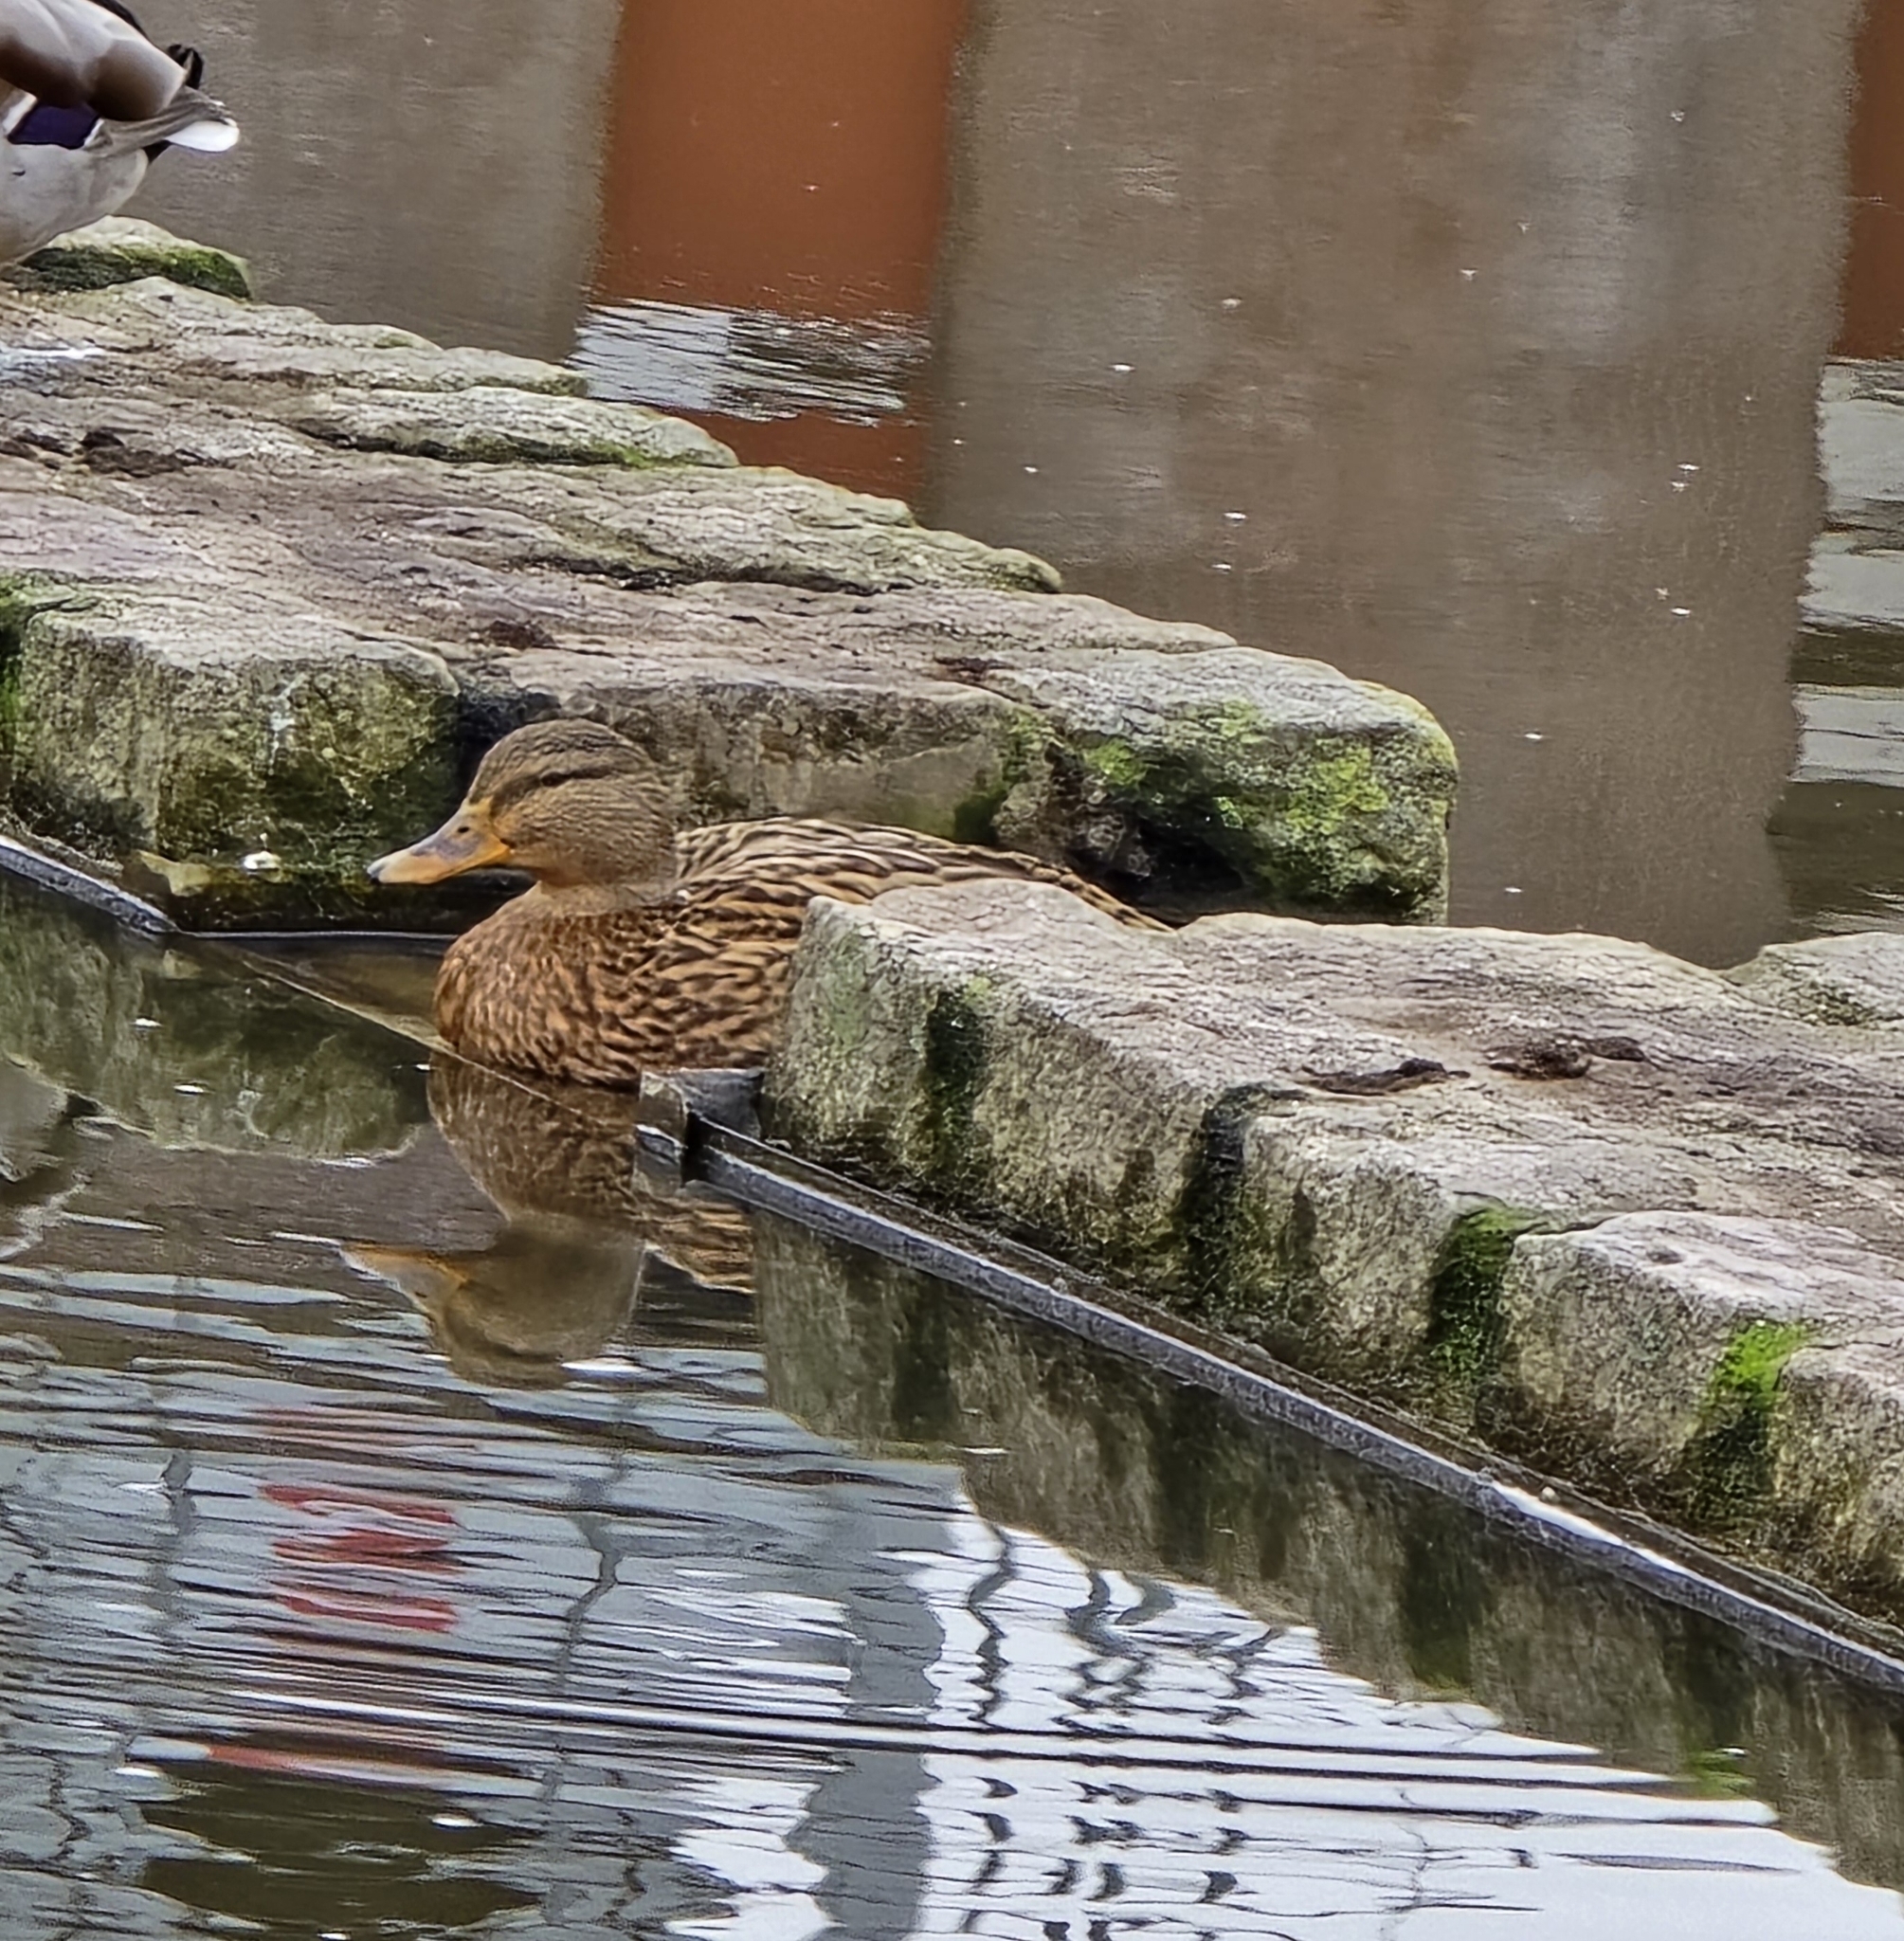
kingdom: Animalia
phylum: Chordata
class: Aves
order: Anseriformes
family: Anatidae
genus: Anas
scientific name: Anas platyrhynchos
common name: Mallard
